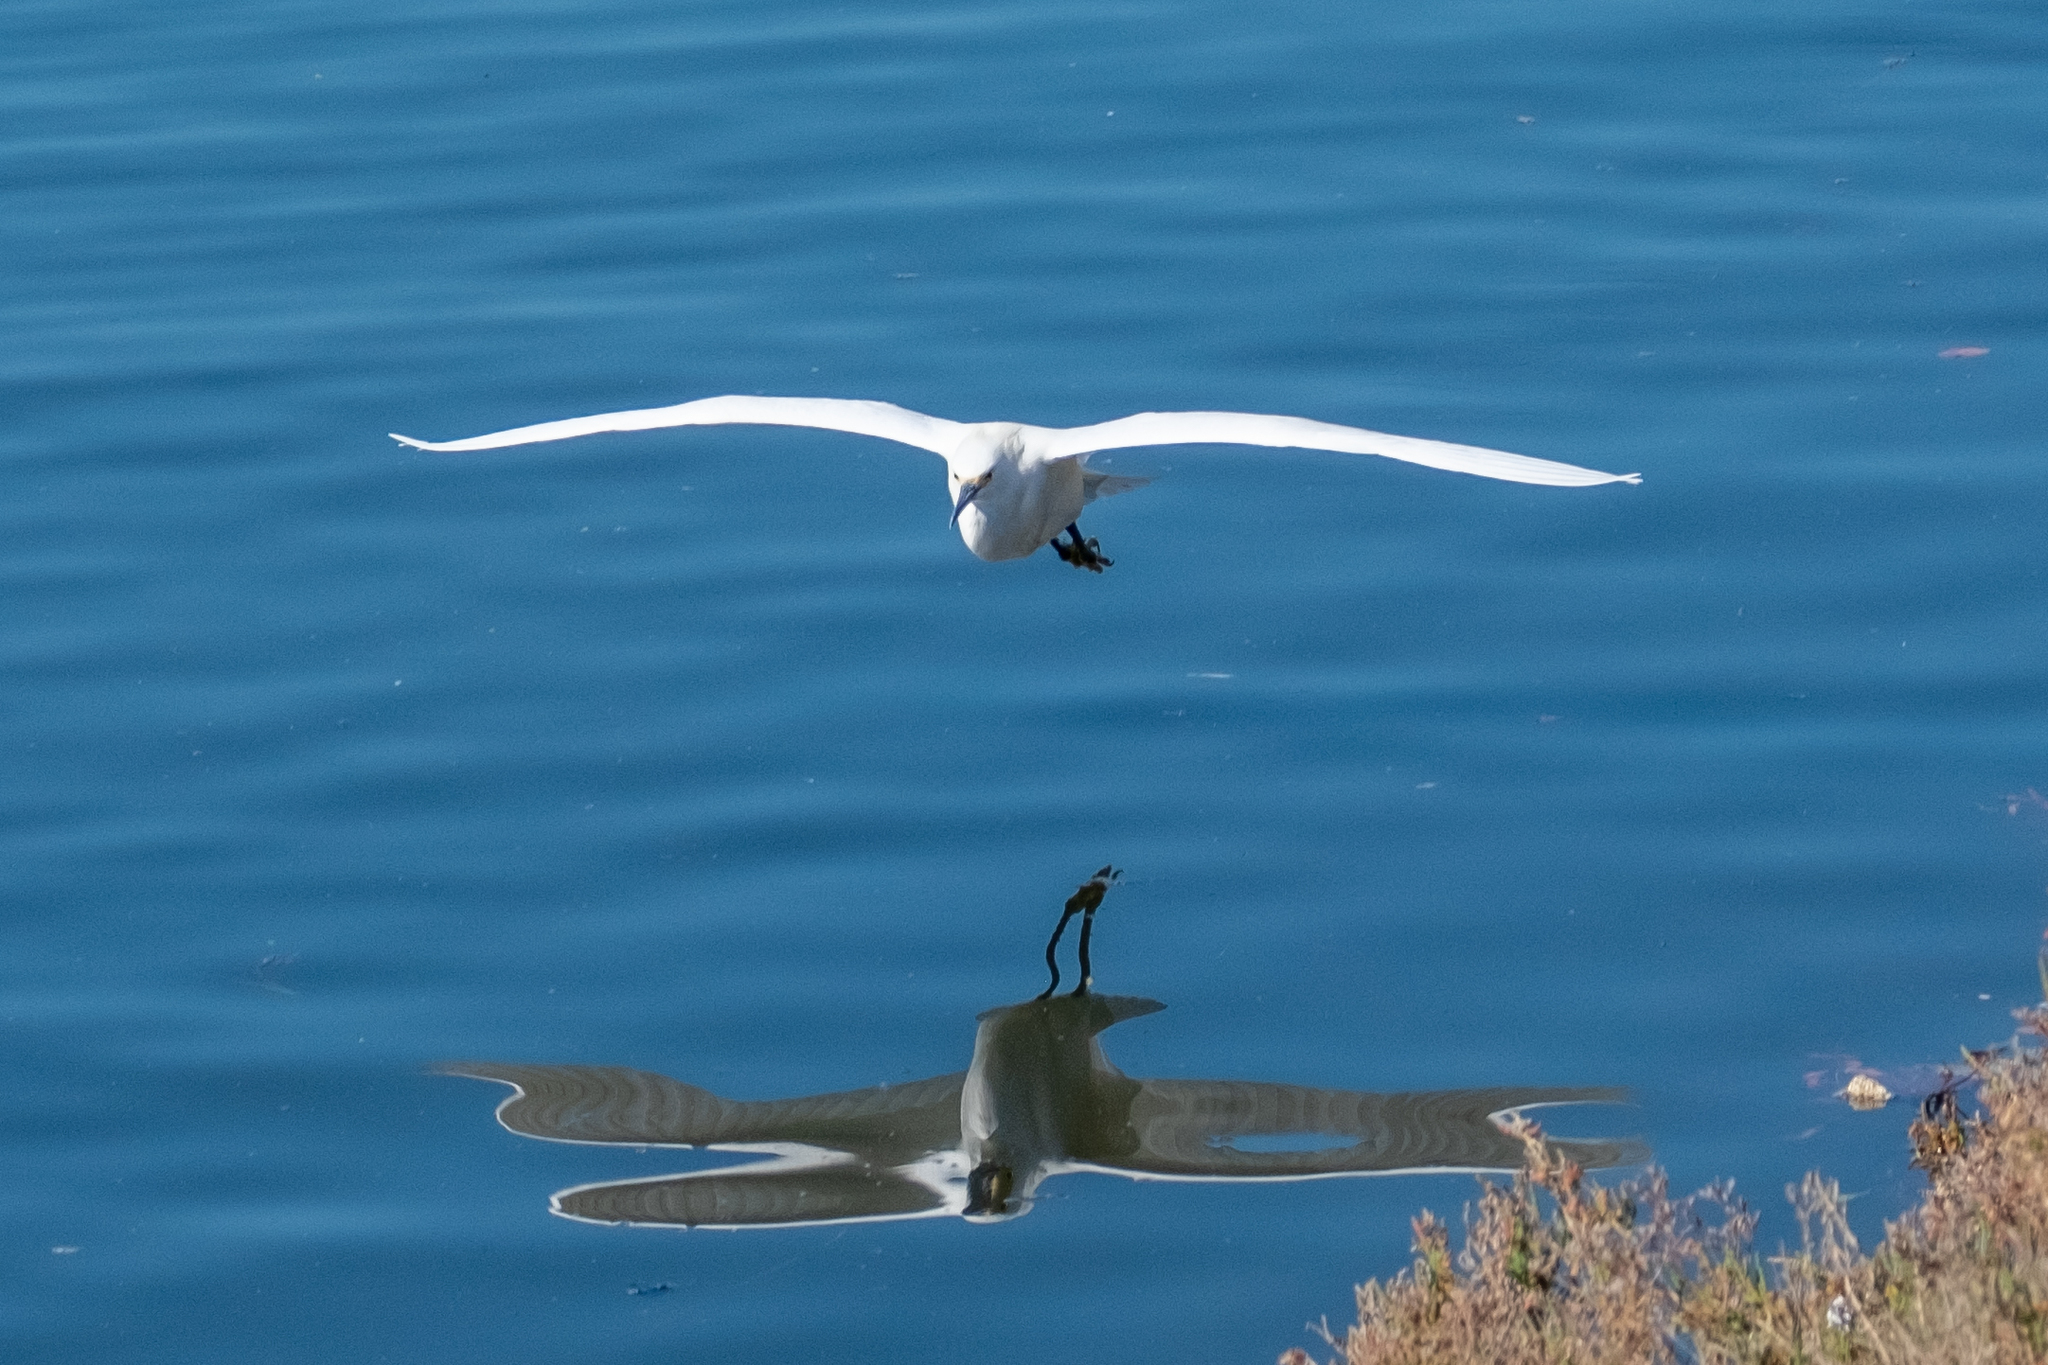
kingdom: Animalia
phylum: Chordata
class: Aves
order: Pelecaniformes
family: Ardeidae
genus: Egretta
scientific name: Egretta thula
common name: Snowy egret
